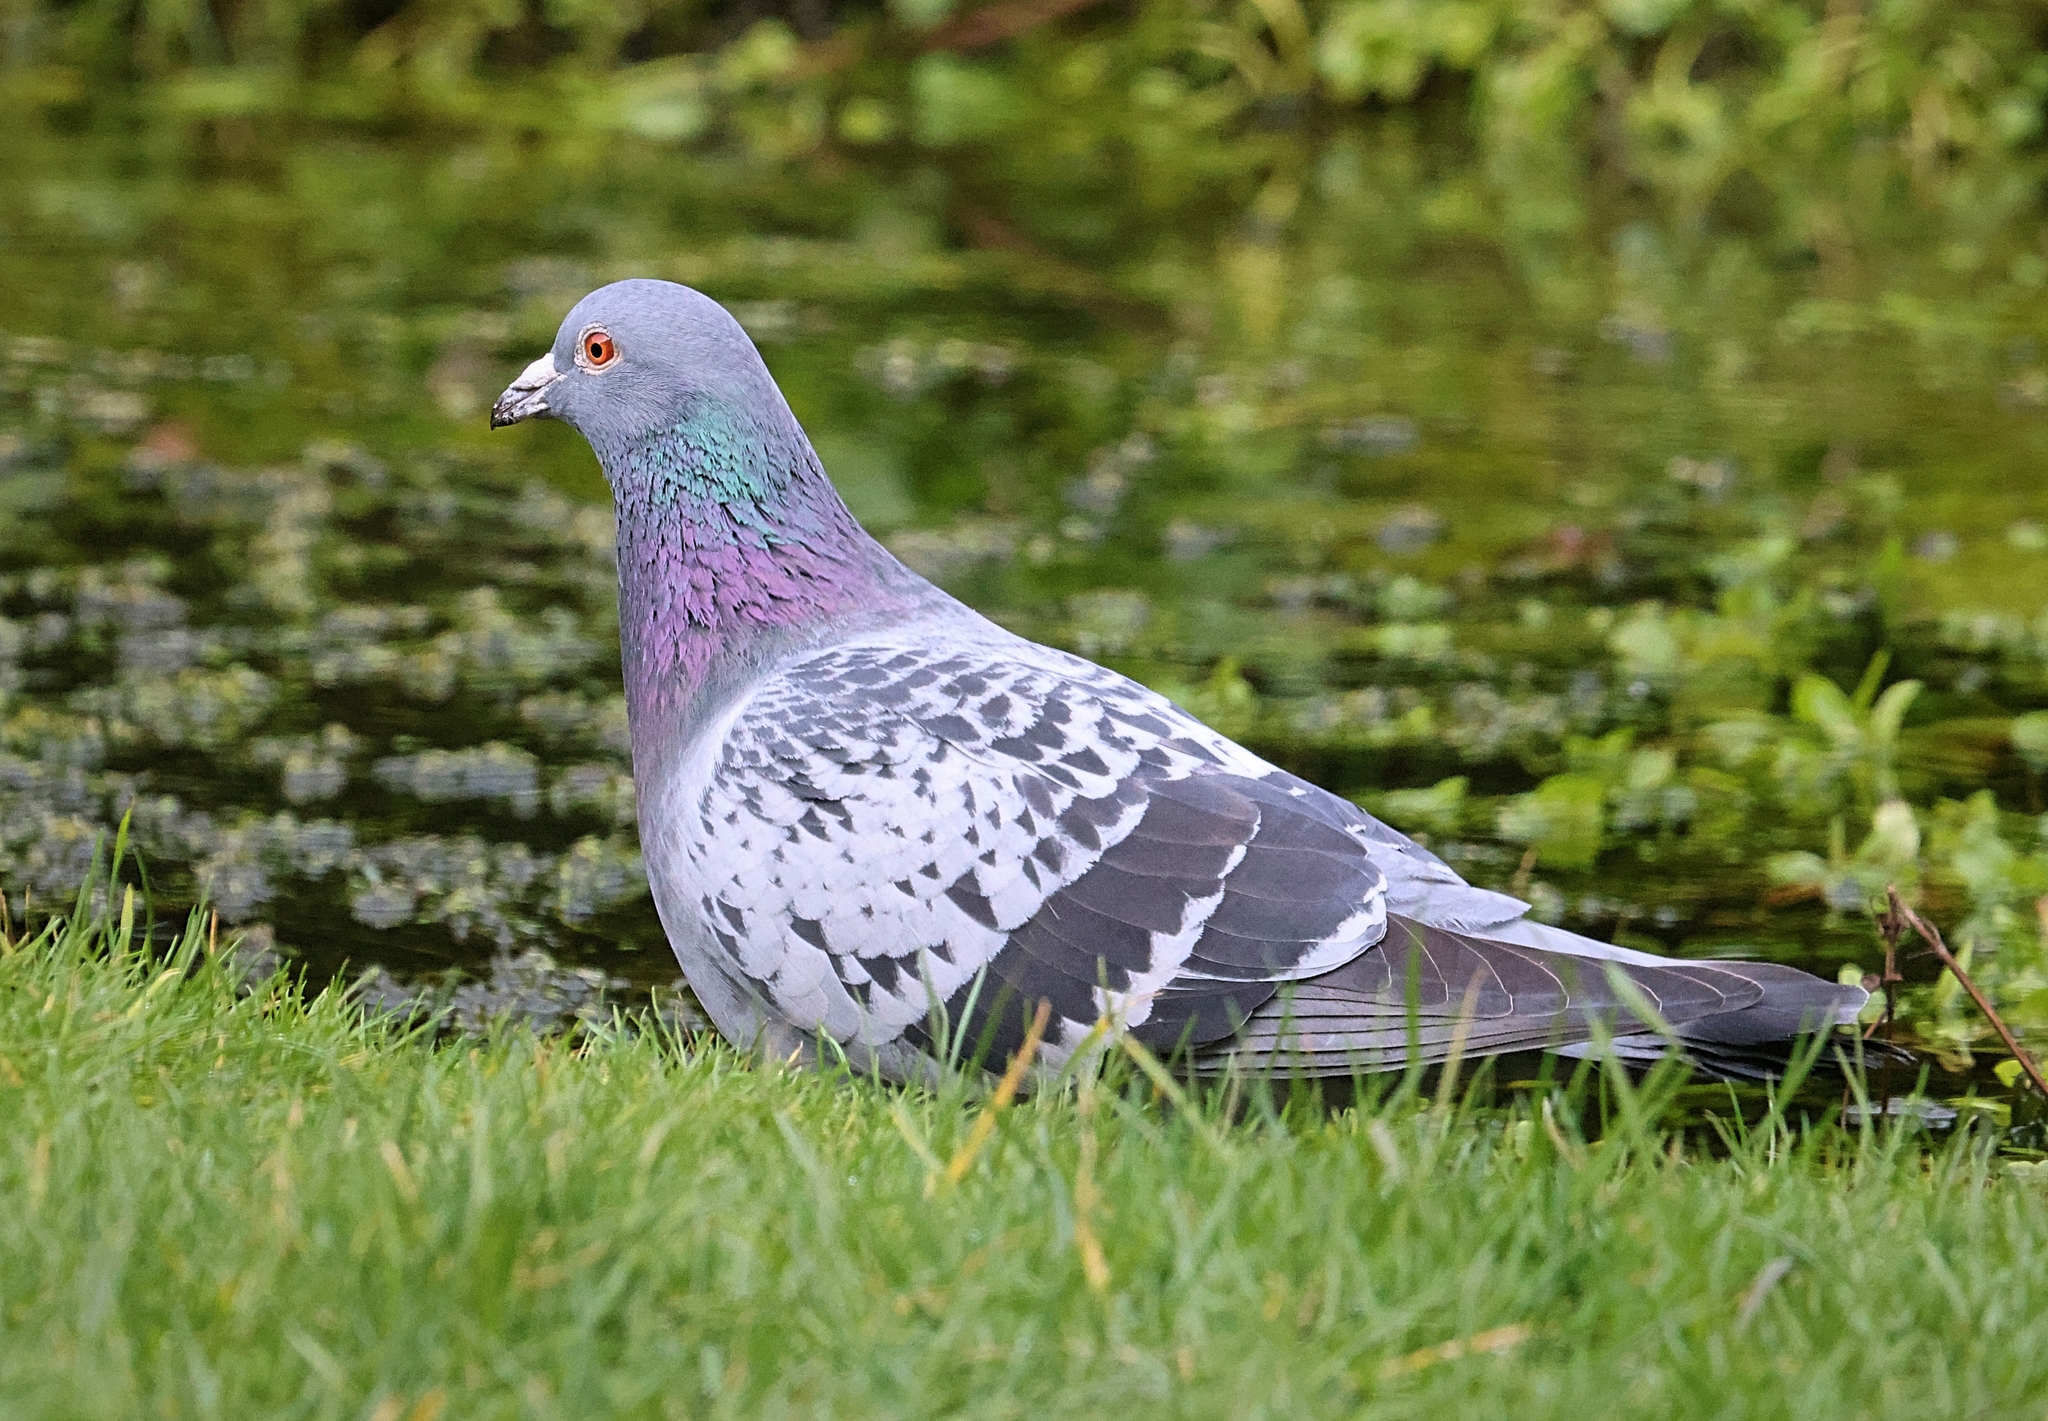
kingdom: Animalia
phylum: Chordata
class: Aves
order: Columbiformes
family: Columbidae
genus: Columba
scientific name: Columba livia
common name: Rock pigeon
